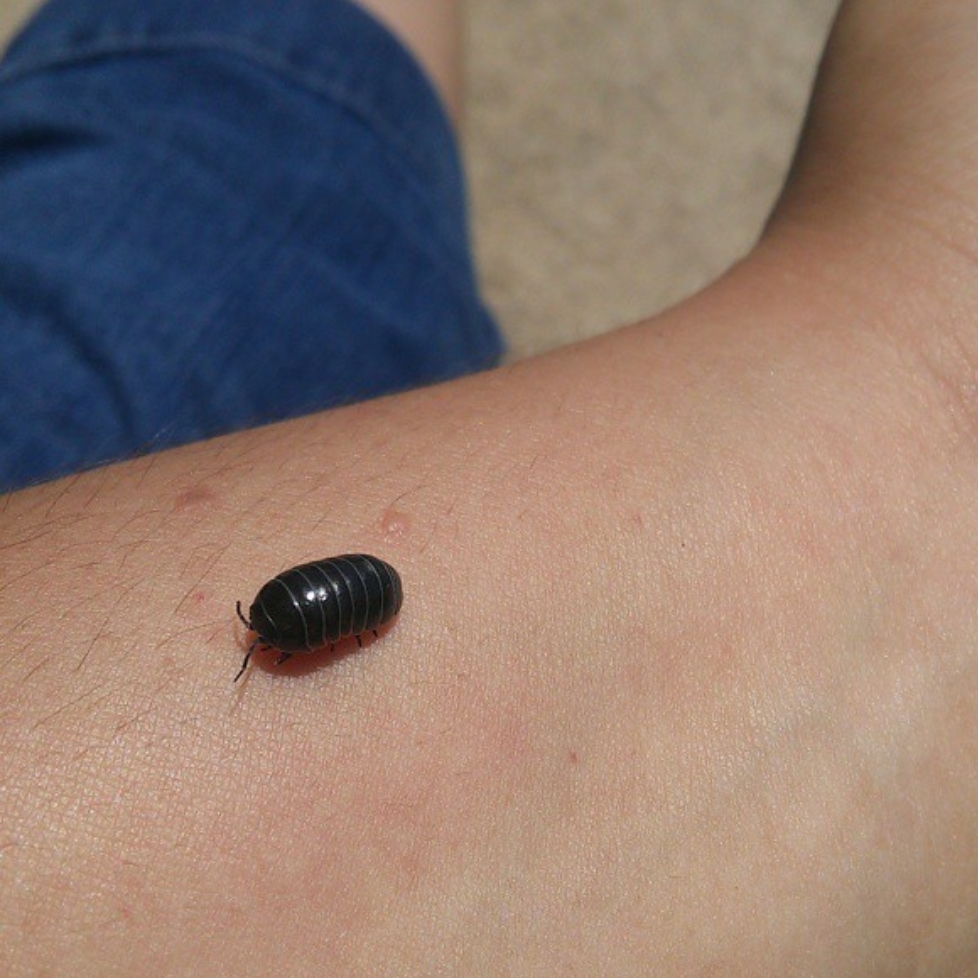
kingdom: Animalia
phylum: Arthropoda
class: Malacostraca
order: Isopoda
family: Armadillidiidae
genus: Armadillidium
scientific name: Armadillidium vulgare
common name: Common pill woodlouse
